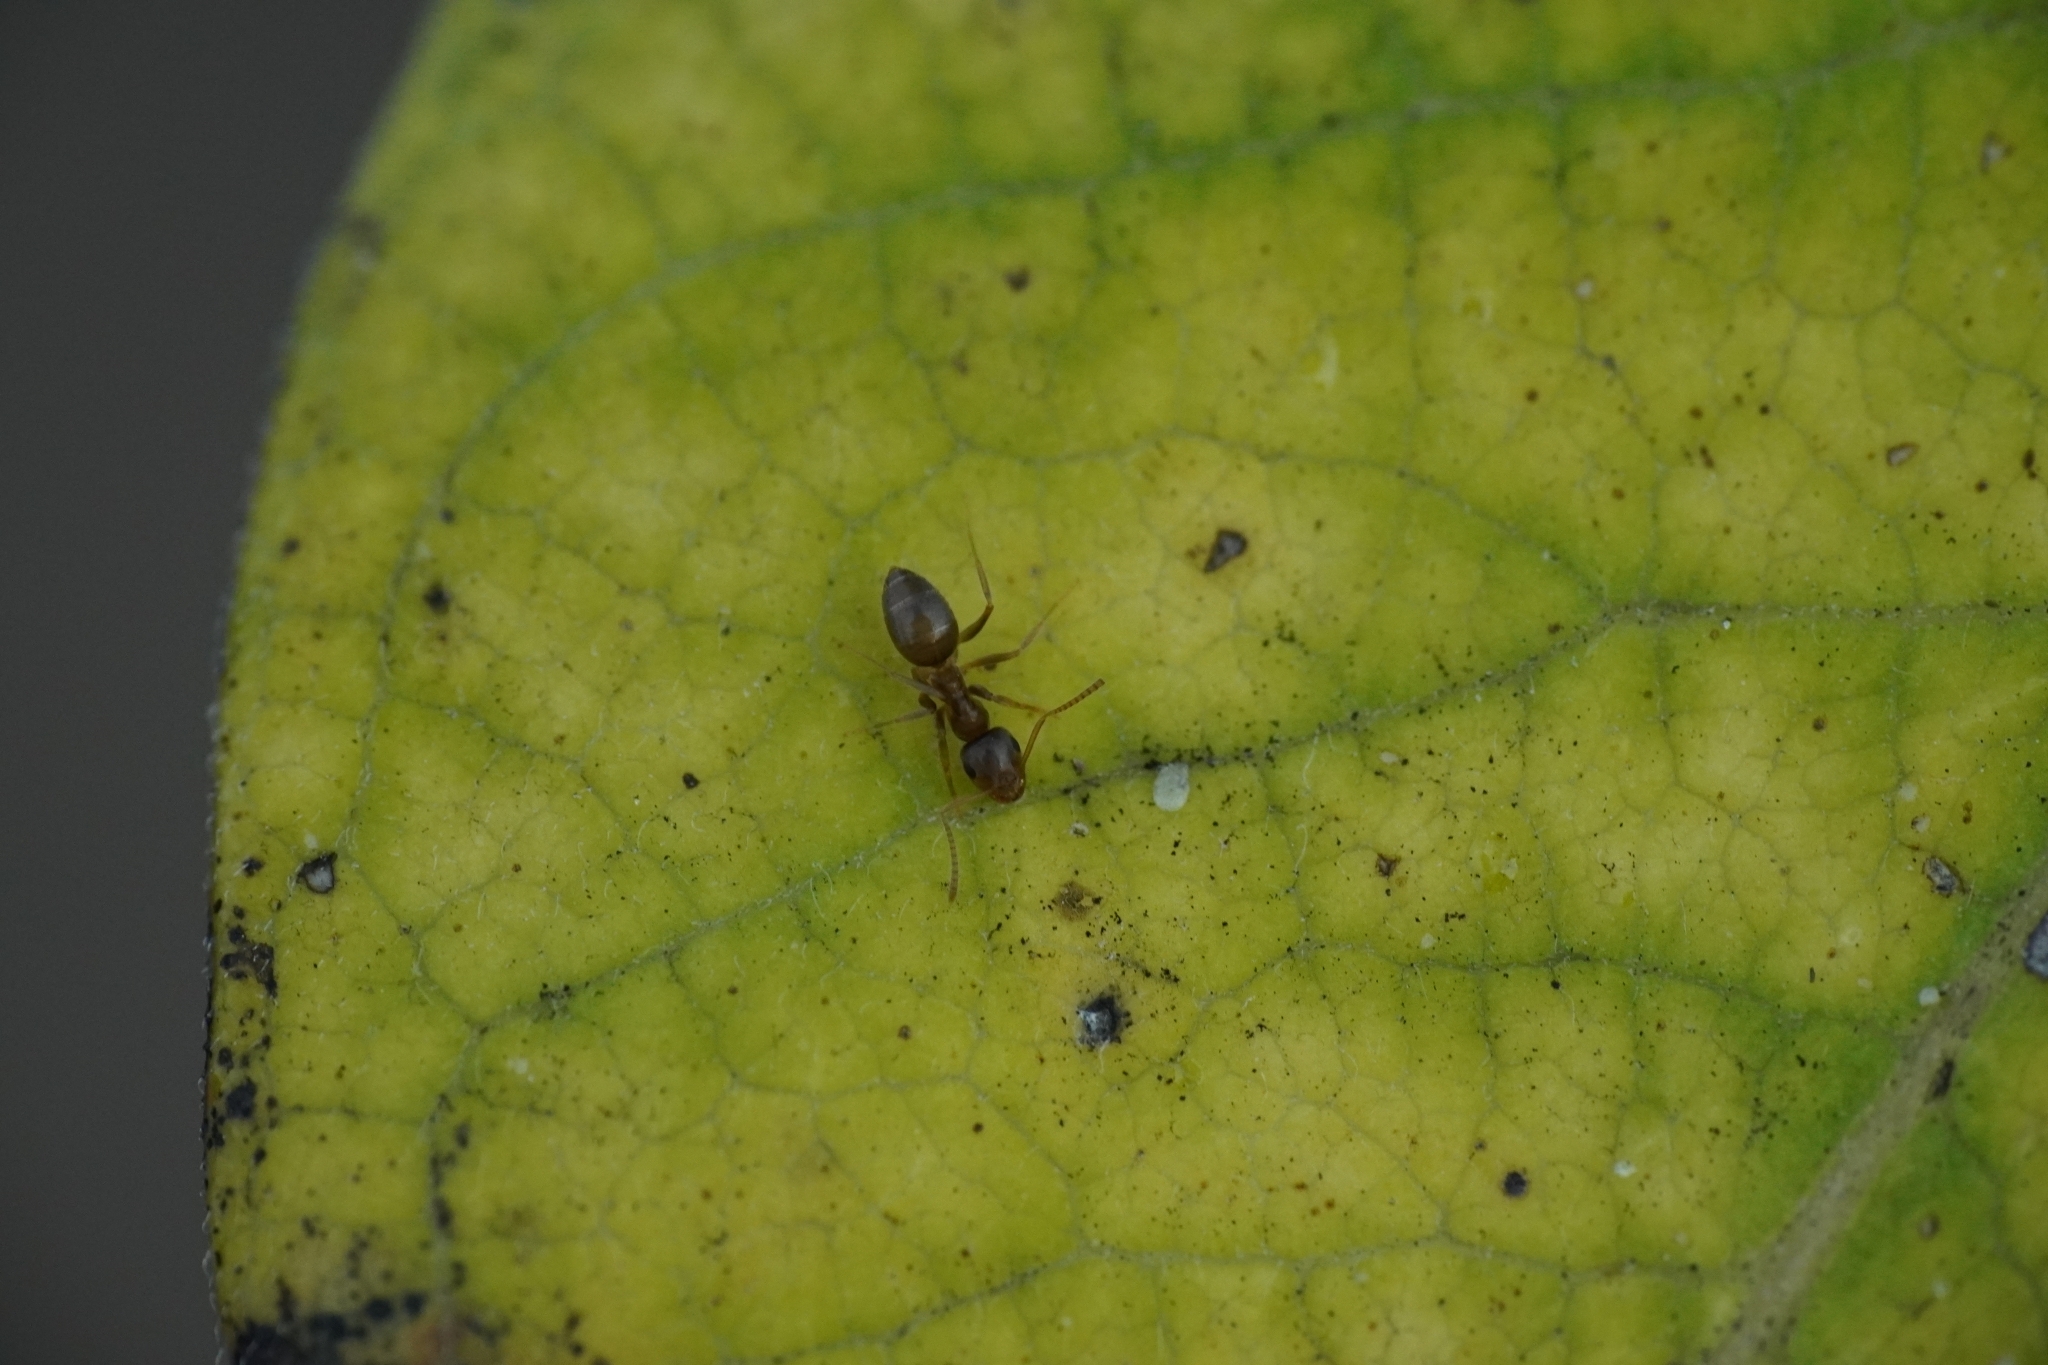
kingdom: Animalia
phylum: Arthropoda
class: Insecta
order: Hymenoptera
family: Formicidae
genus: Lasius
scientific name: Lasius
